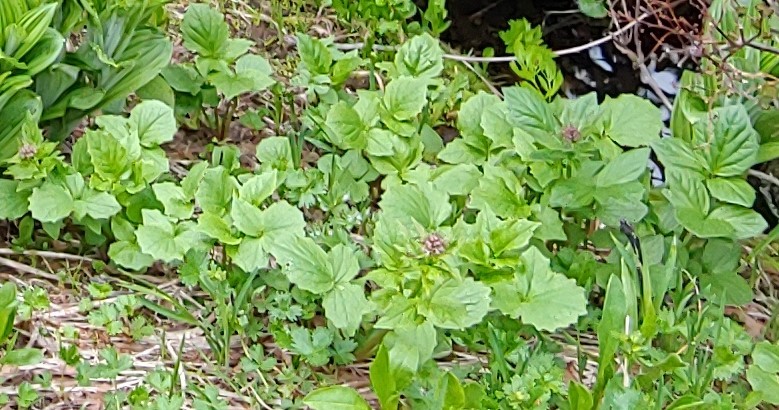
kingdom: Plantae
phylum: Tracheophyta
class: Magnoliopsida
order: Dipsacales
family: Caprifoliaceae
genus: Valeriana
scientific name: Valeriana sitchensis
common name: Pacific valerian
